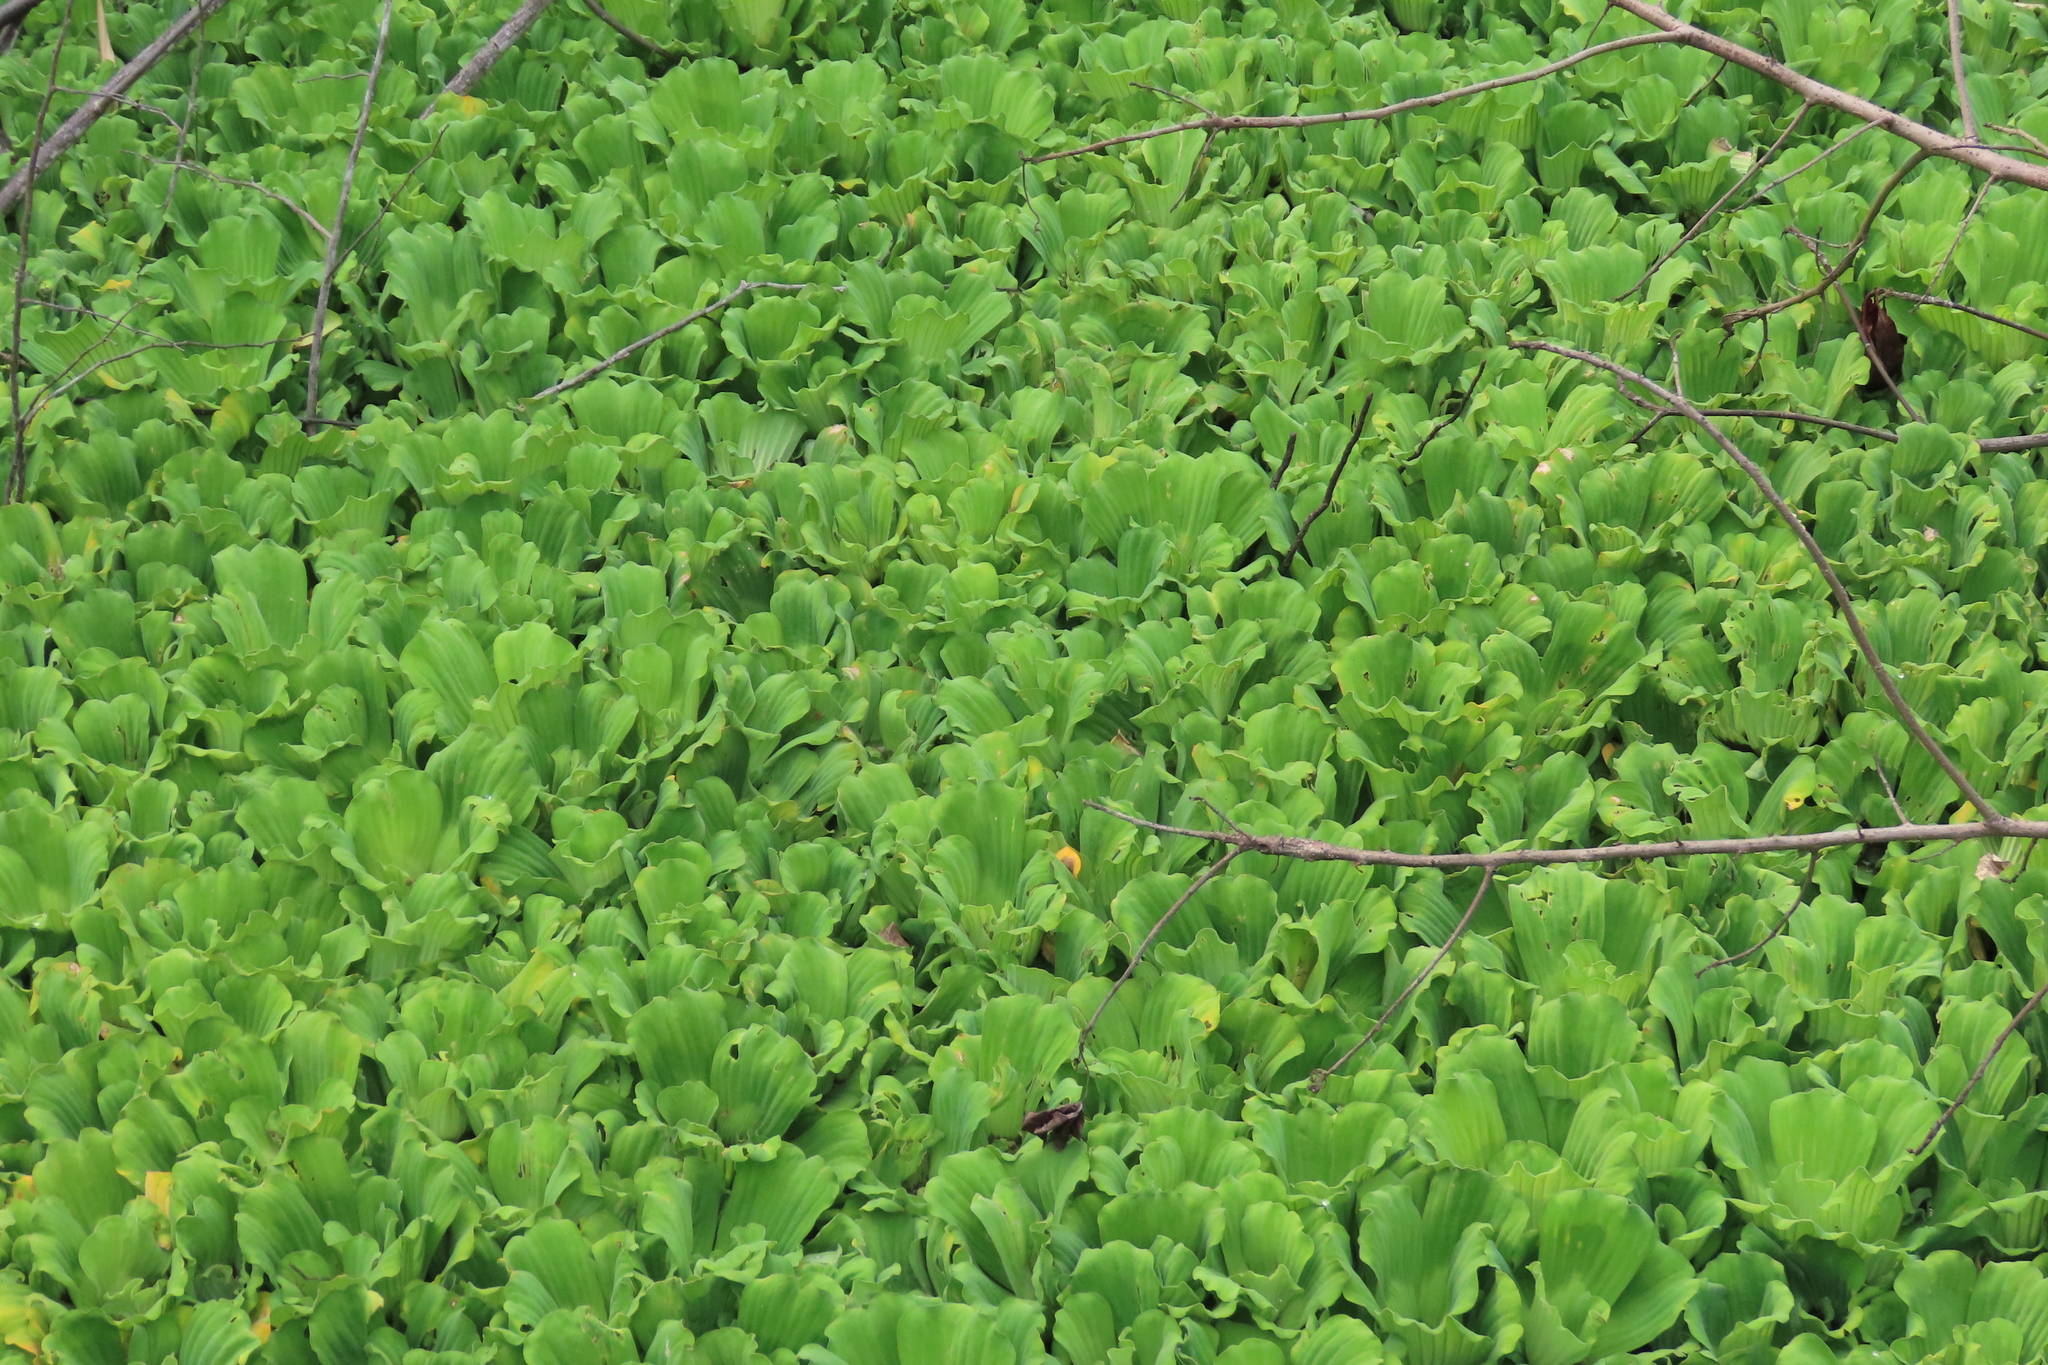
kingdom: Plantae
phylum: Tracheophyta
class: Liliopsida
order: Alismatales
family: Araceae
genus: Pistia
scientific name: Pistia stratiotes
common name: Water lettuce
